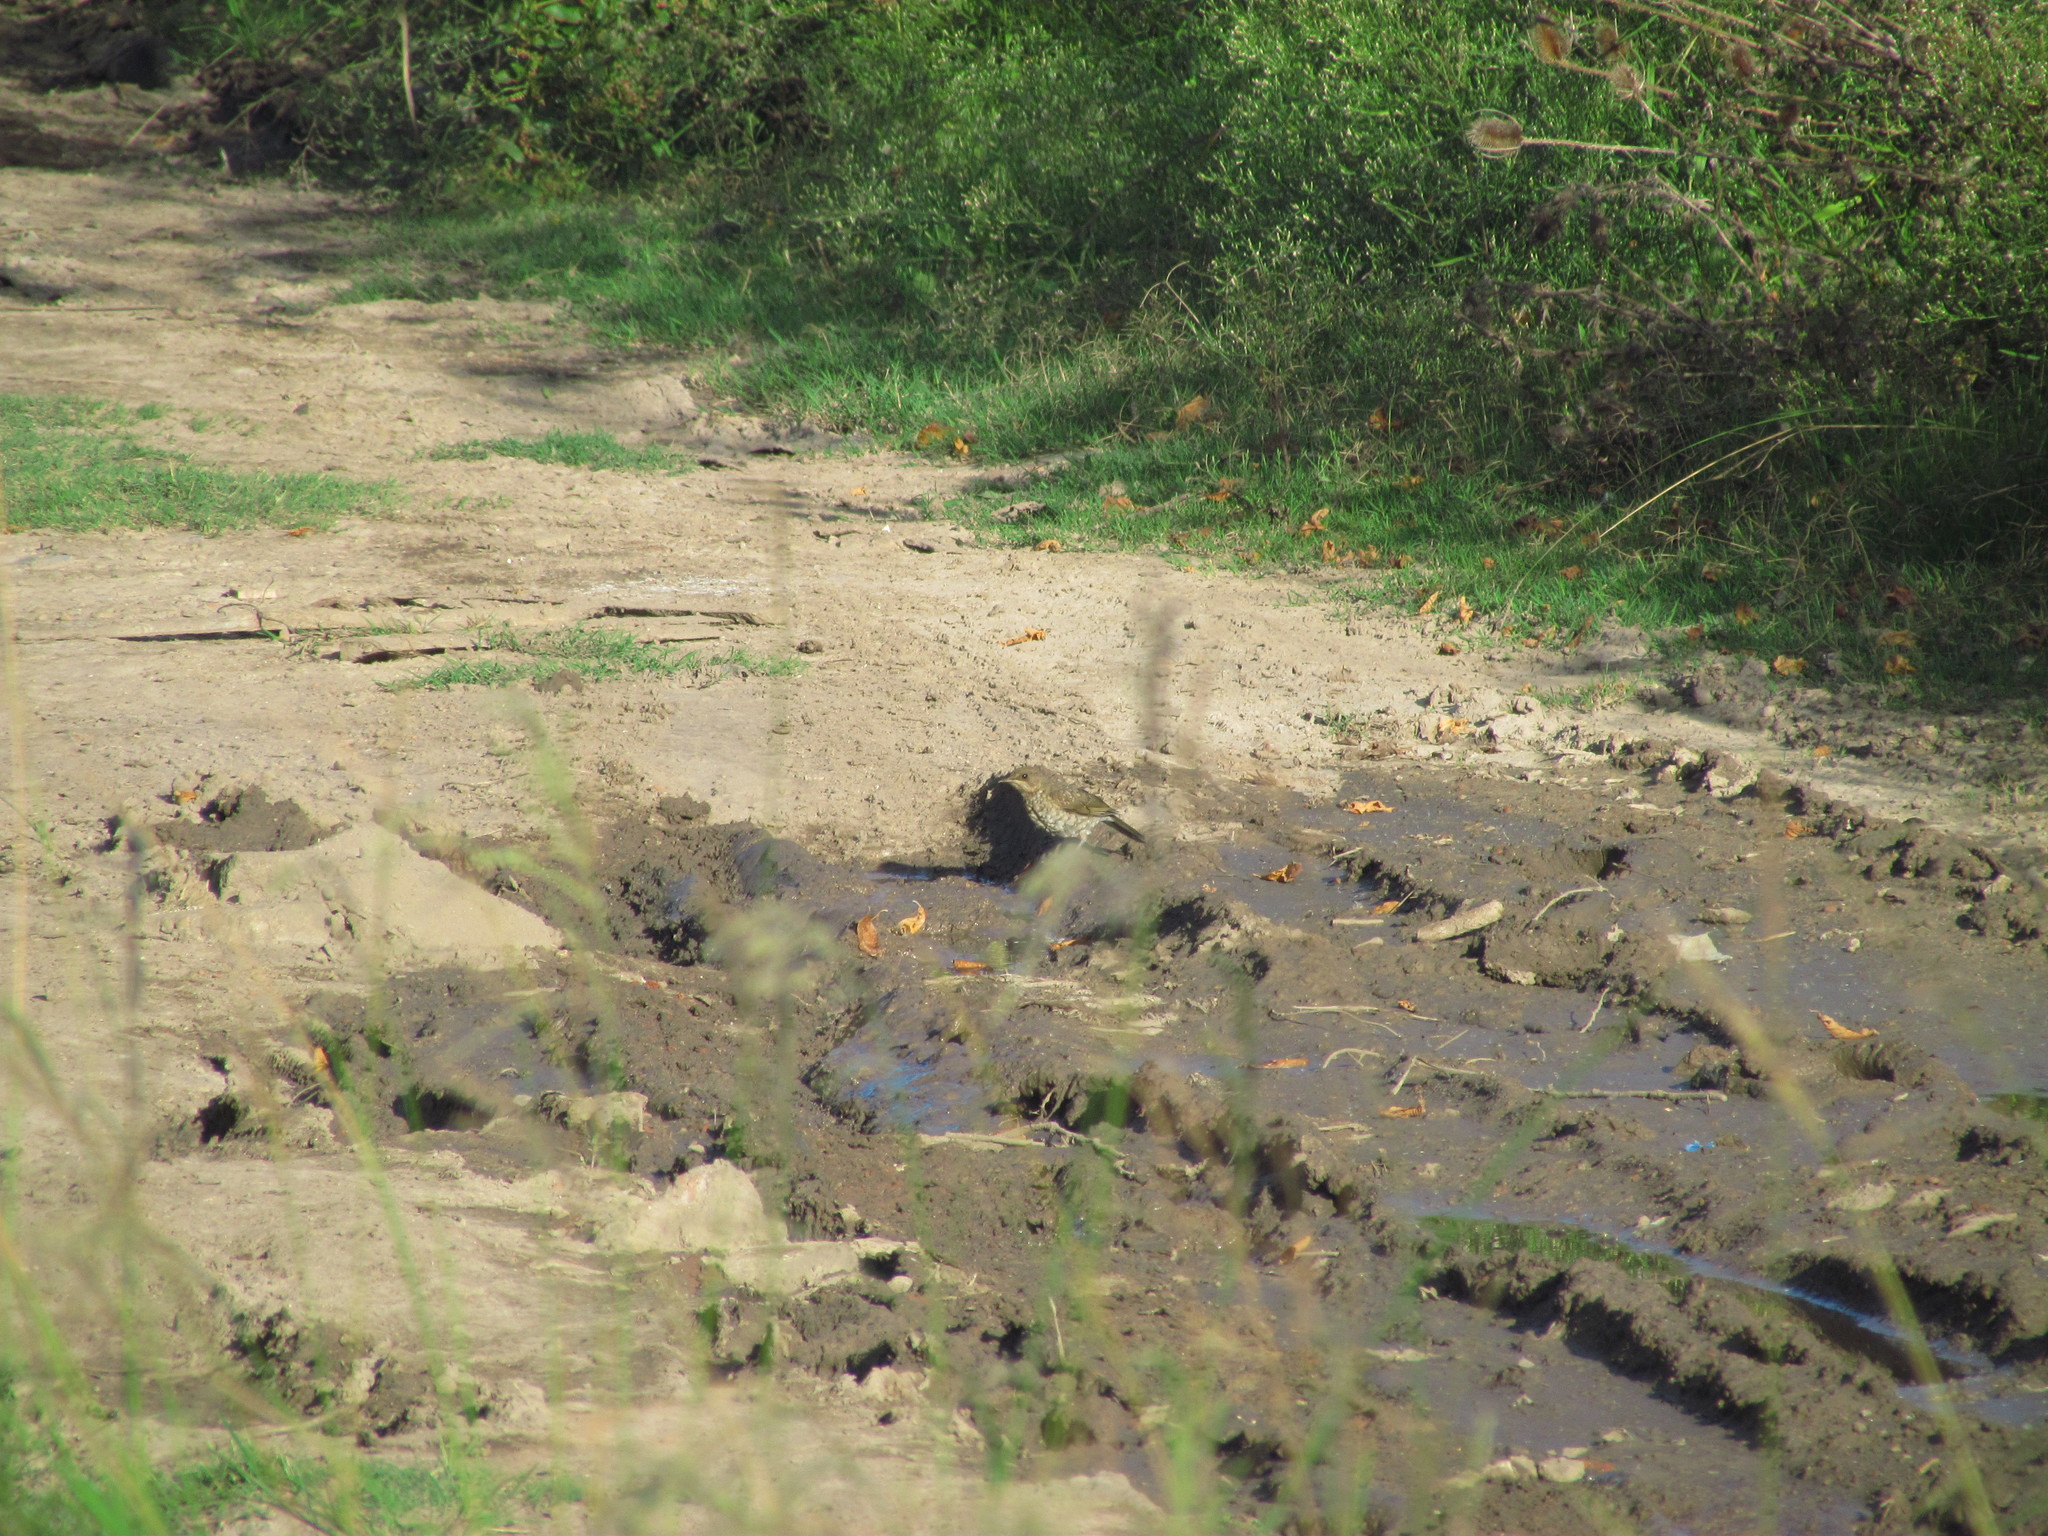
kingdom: Animalia
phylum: Chordata
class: Aves
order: Passeriformes
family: Turdidae
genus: Turdus
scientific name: Turdus amaurochalinus
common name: Creamy-bellied thrush
